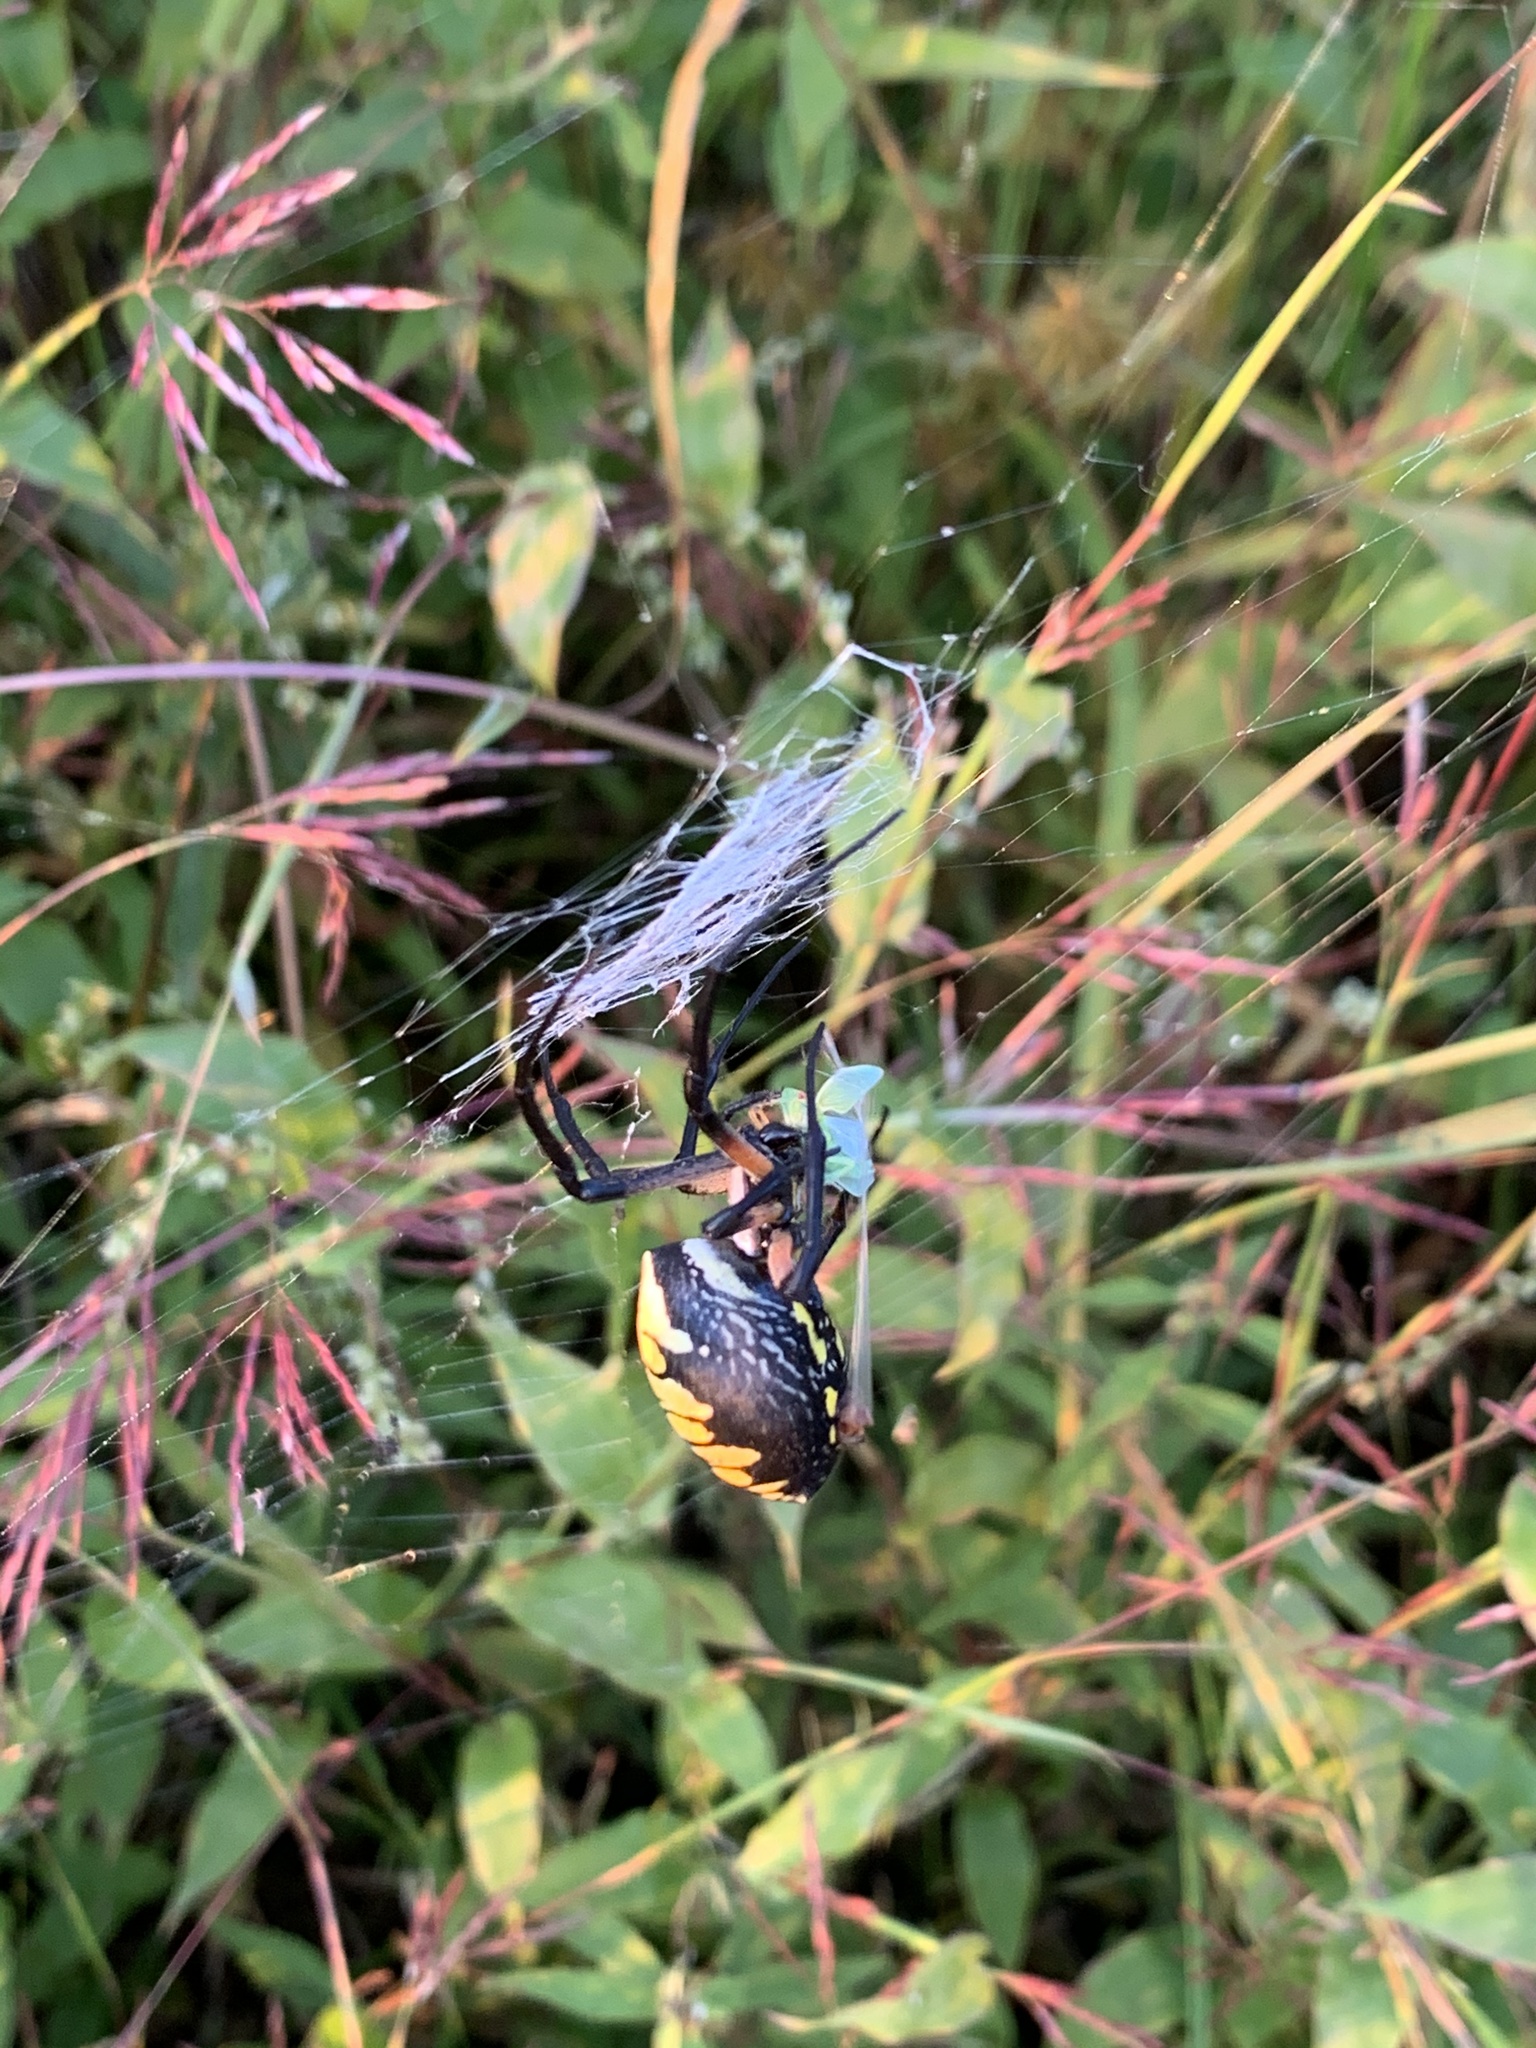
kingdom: Animalia
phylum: Arthropoda
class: Arachnida
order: Araneae
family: Araneidae
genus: Argiope
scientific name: Argiope aurantia
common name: Orb weavers
